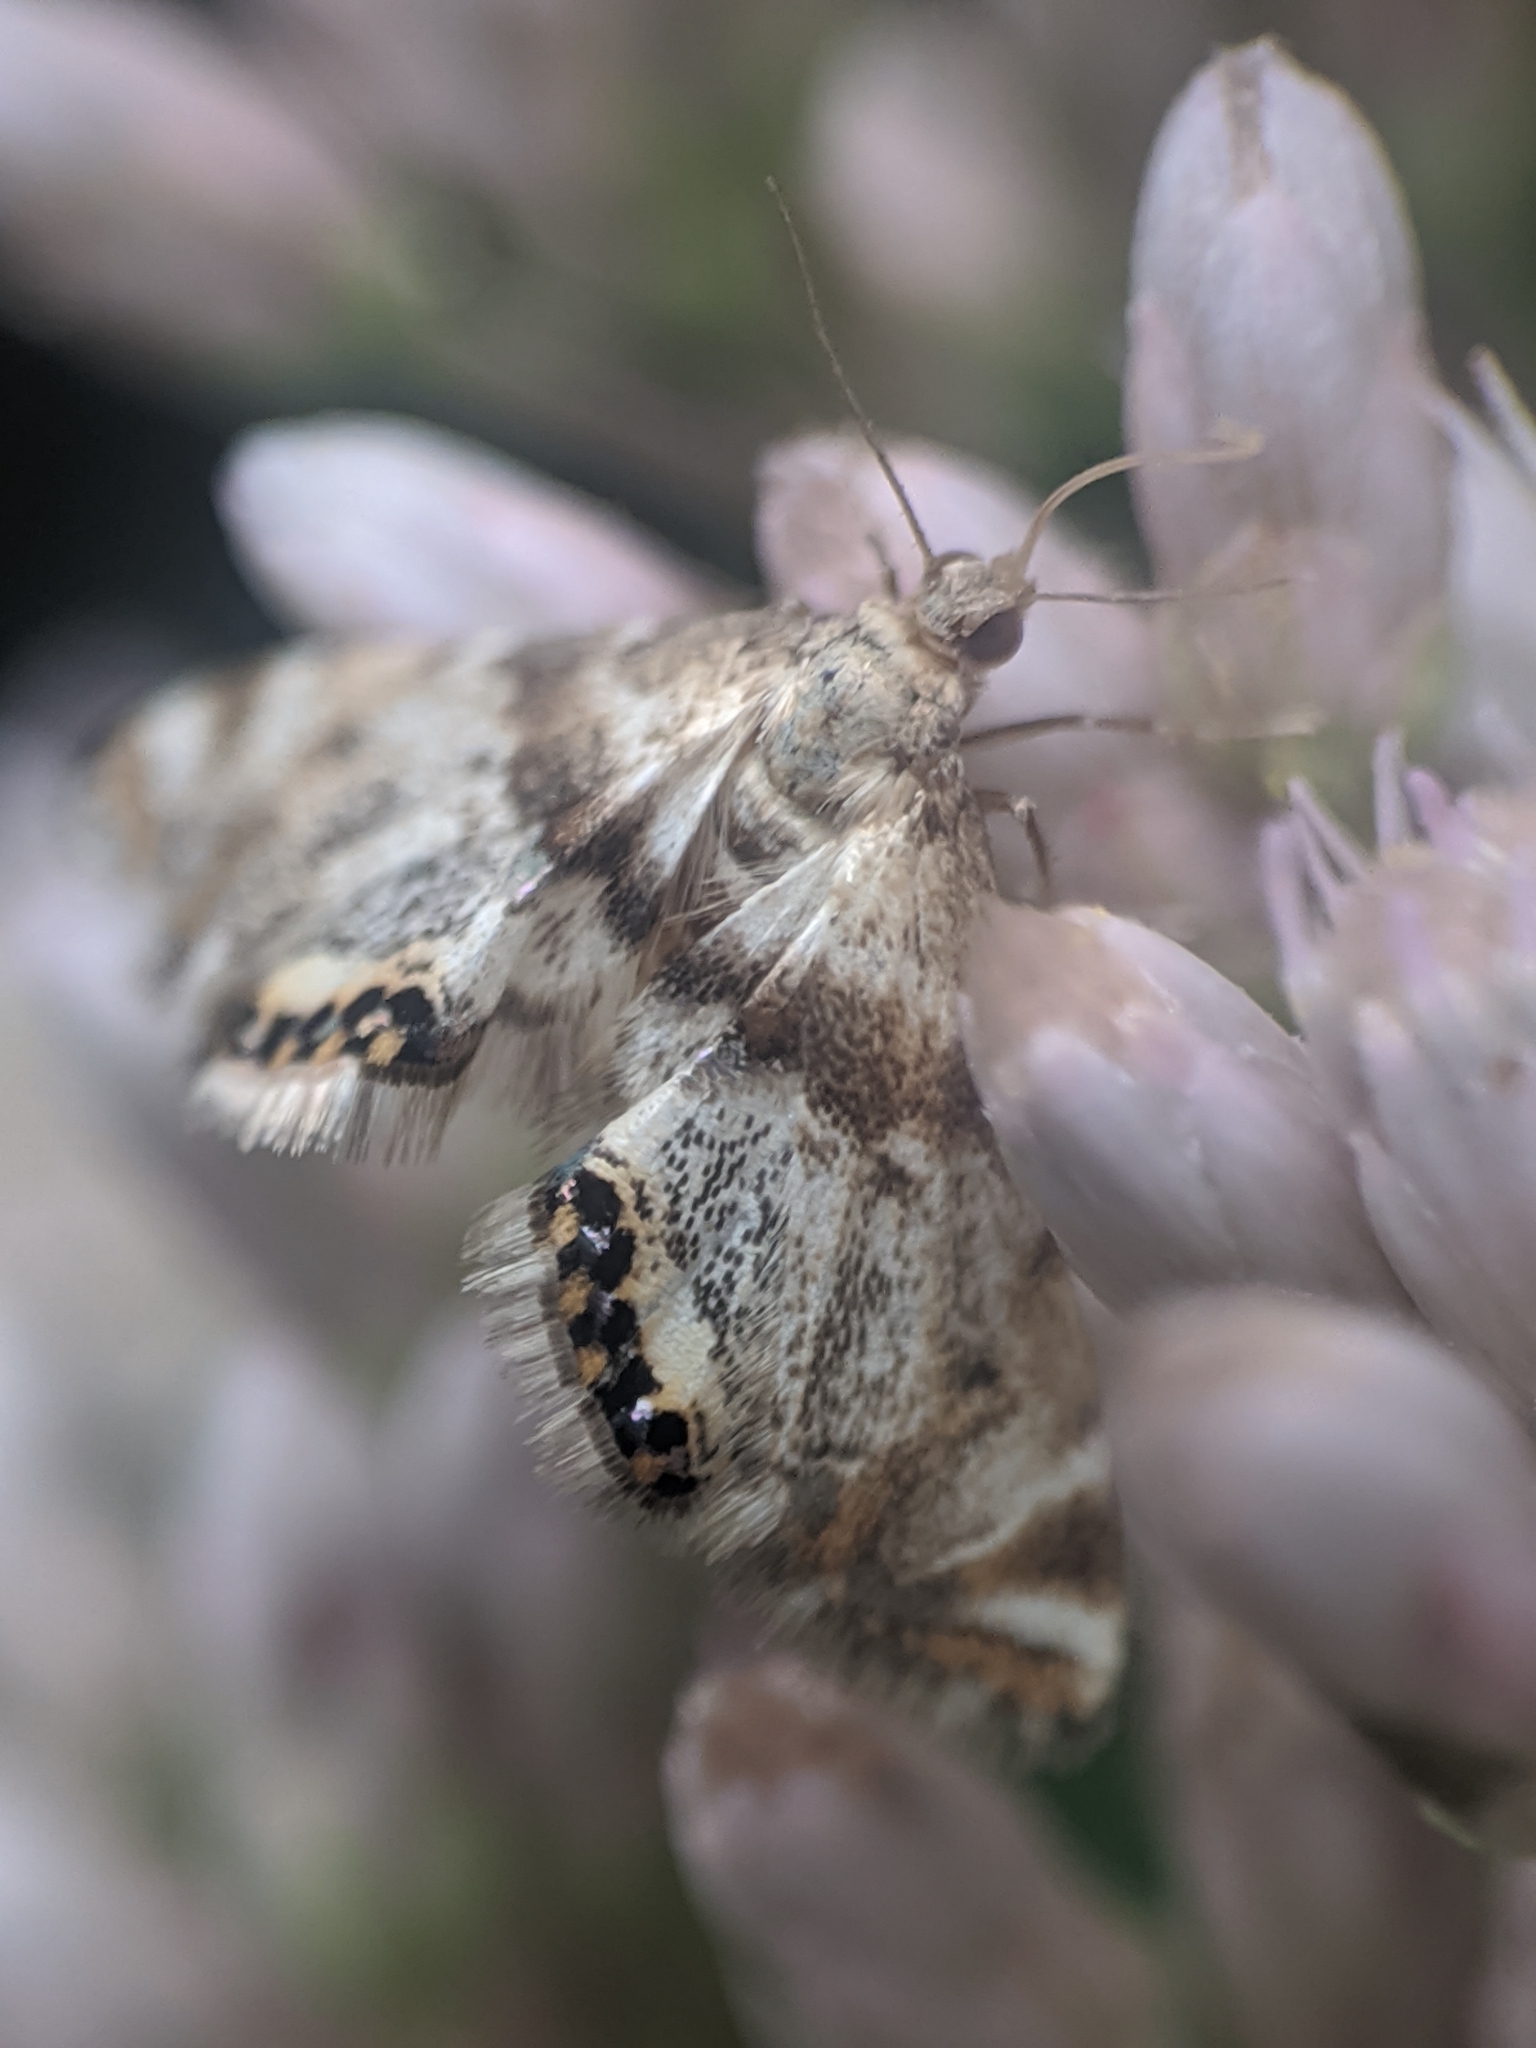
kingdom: Animalia
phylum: Arthropoda
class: Insecta
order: Lepidoptera
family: Crambidae
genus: Petrophila
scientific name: Petrophila fulicalis
